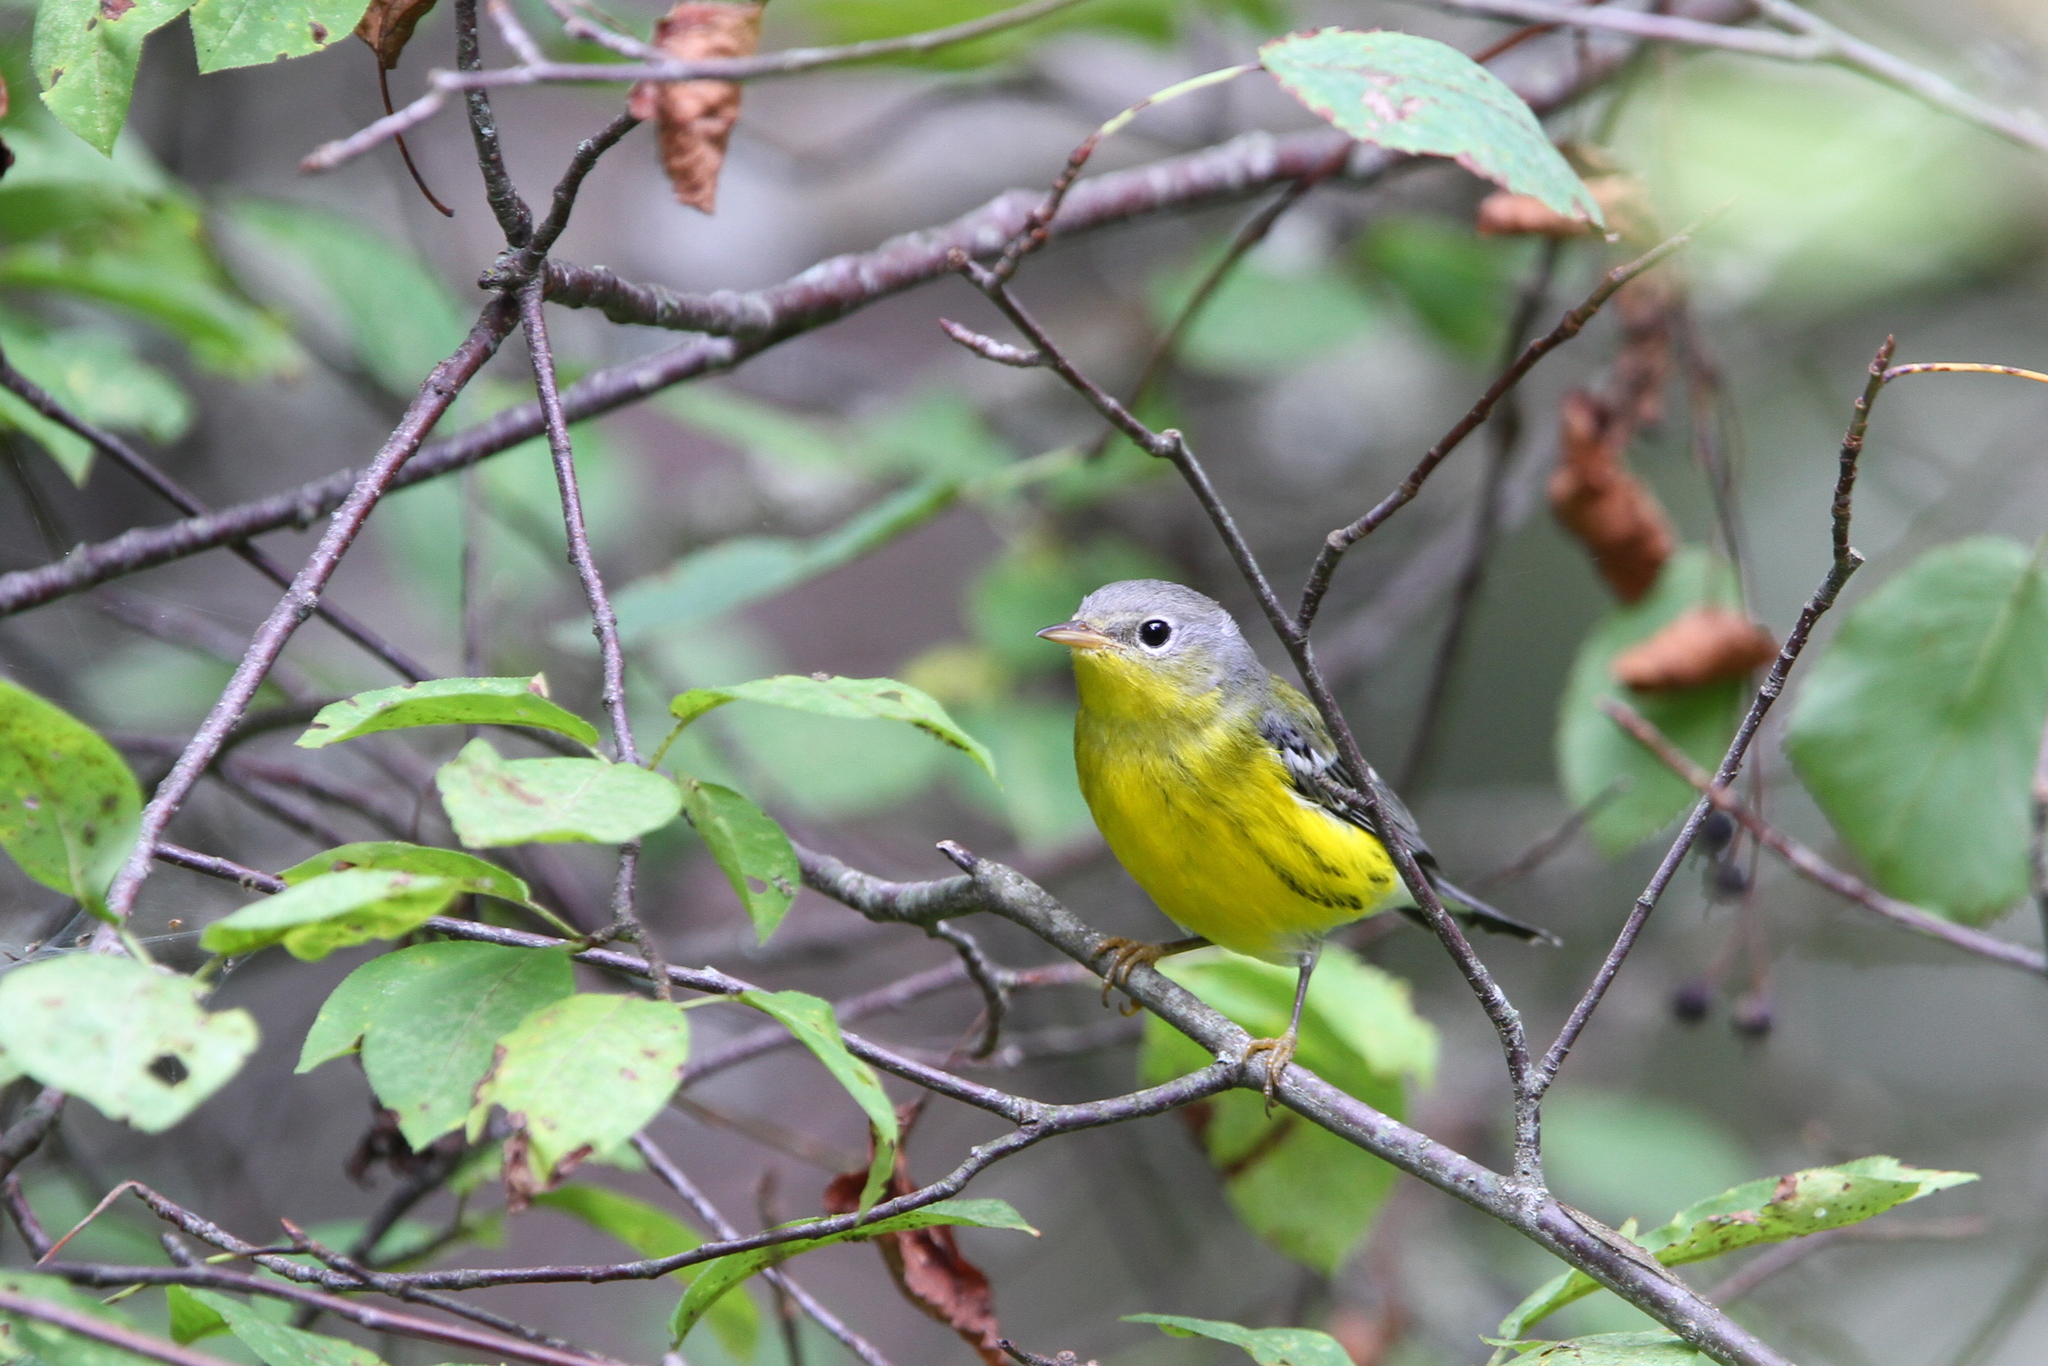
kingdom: Animalia
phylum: Chordata
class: Aves
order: Passeriformes
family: Parulidae
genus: Setophaga
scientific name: Setophaga magnolia
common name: Magnolia warbler
